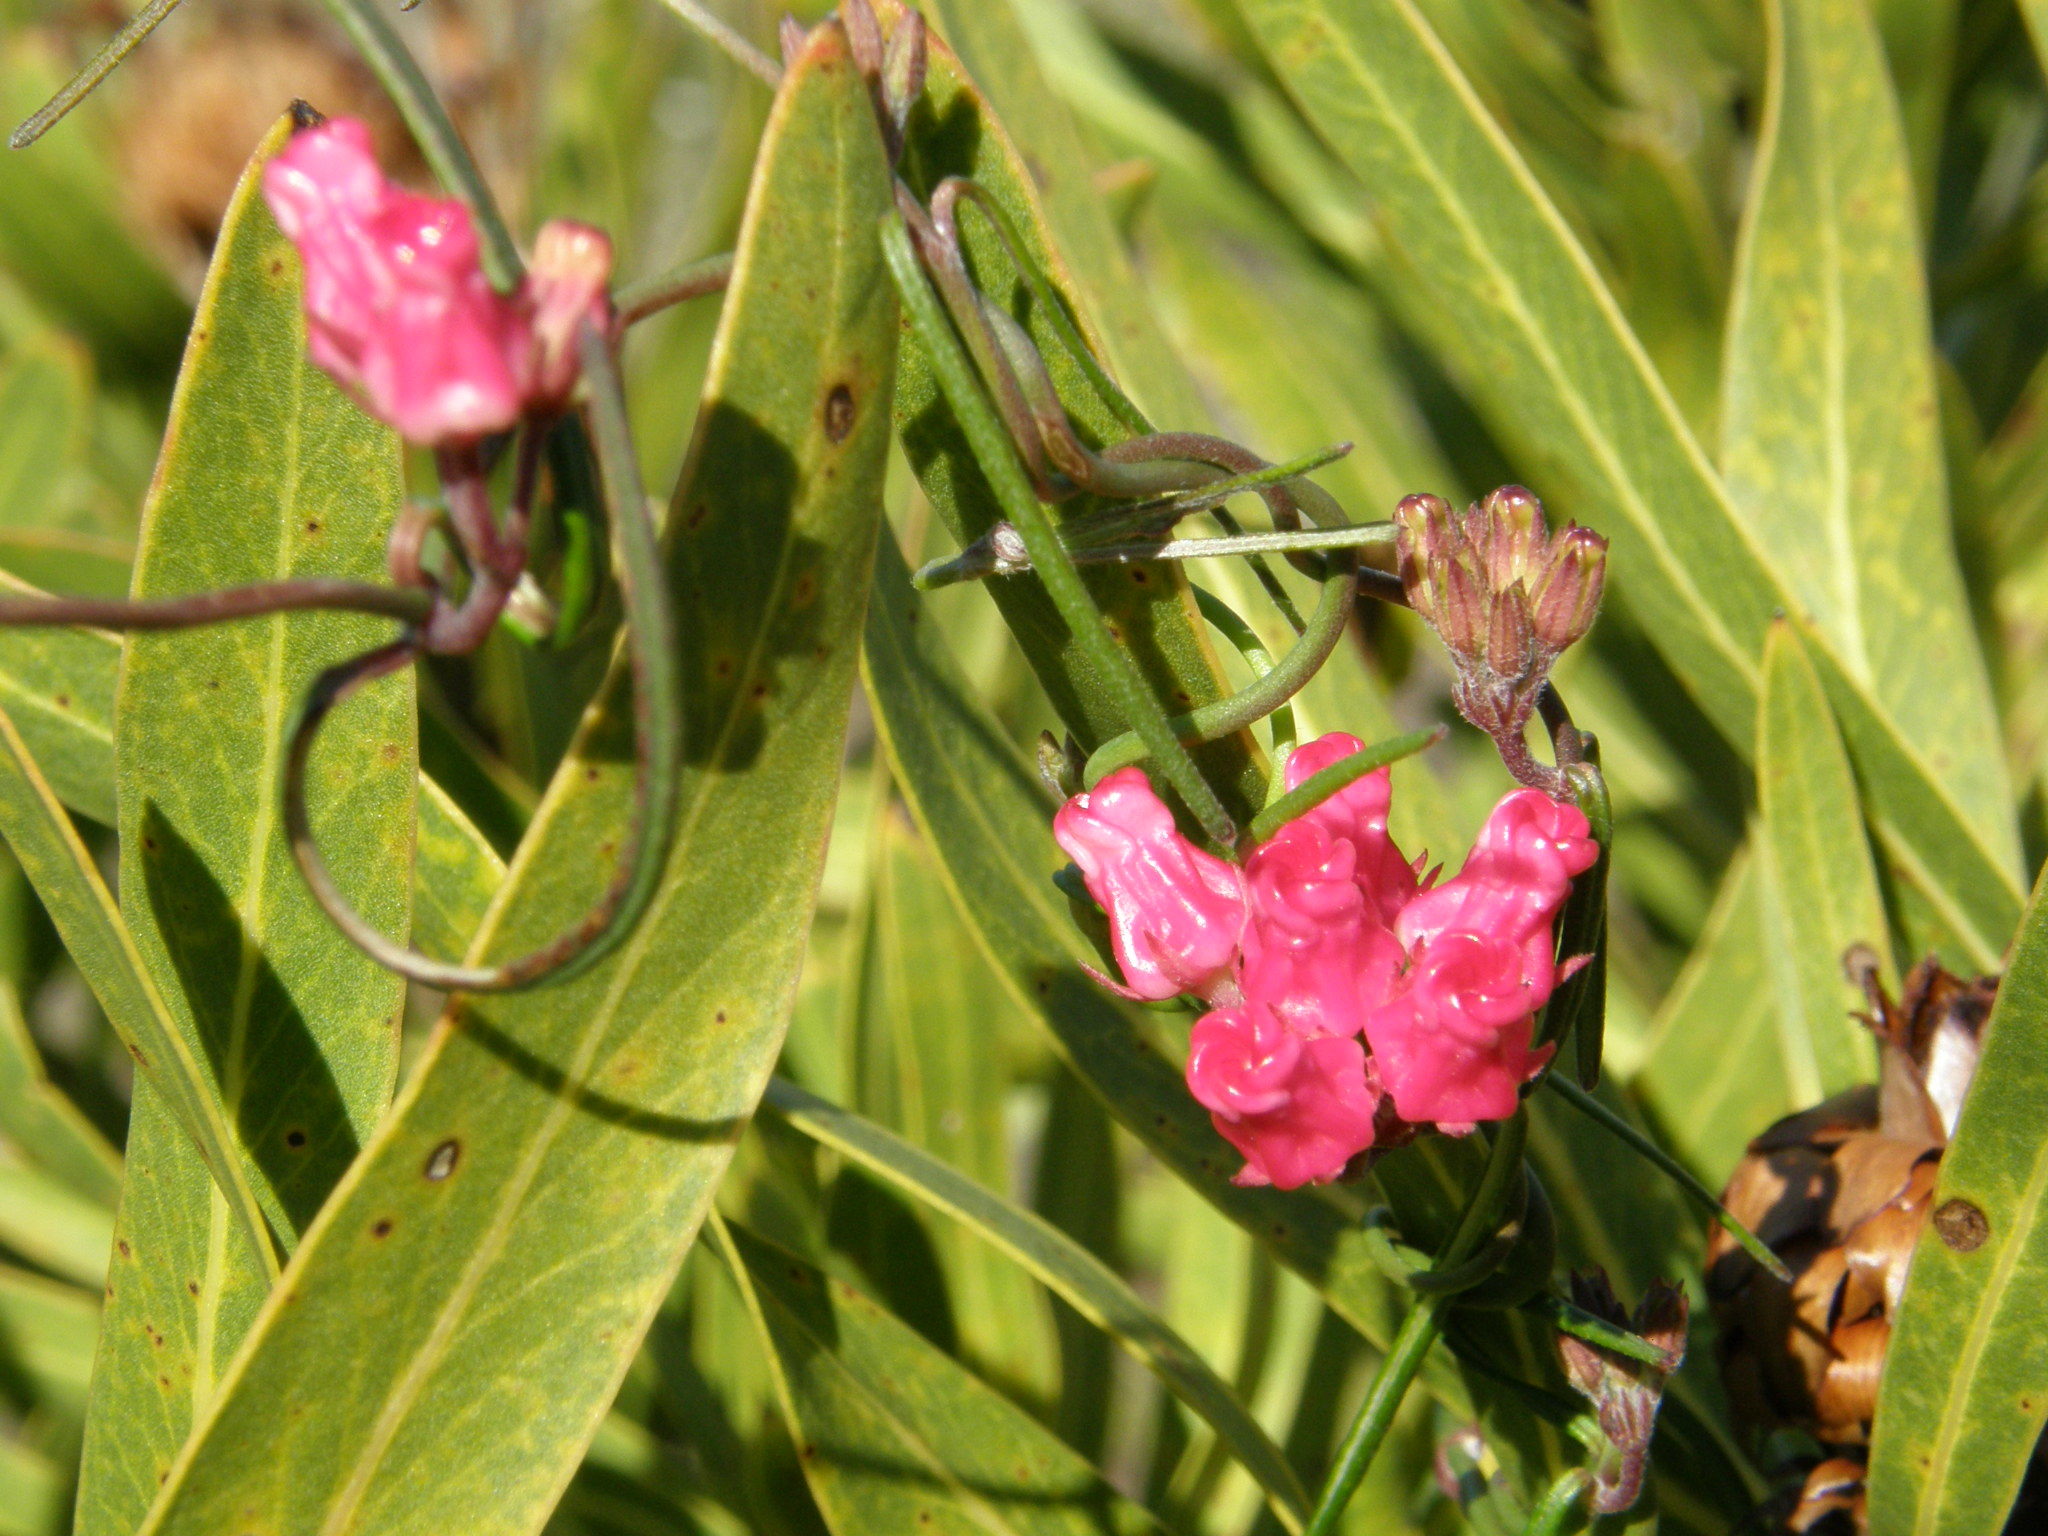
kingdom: Plantae
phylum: Tracheophyta
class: Magnoliopsida
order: Gentianales
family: Apocynaceae
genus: Microloma
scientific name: Microloma tenuifolium
